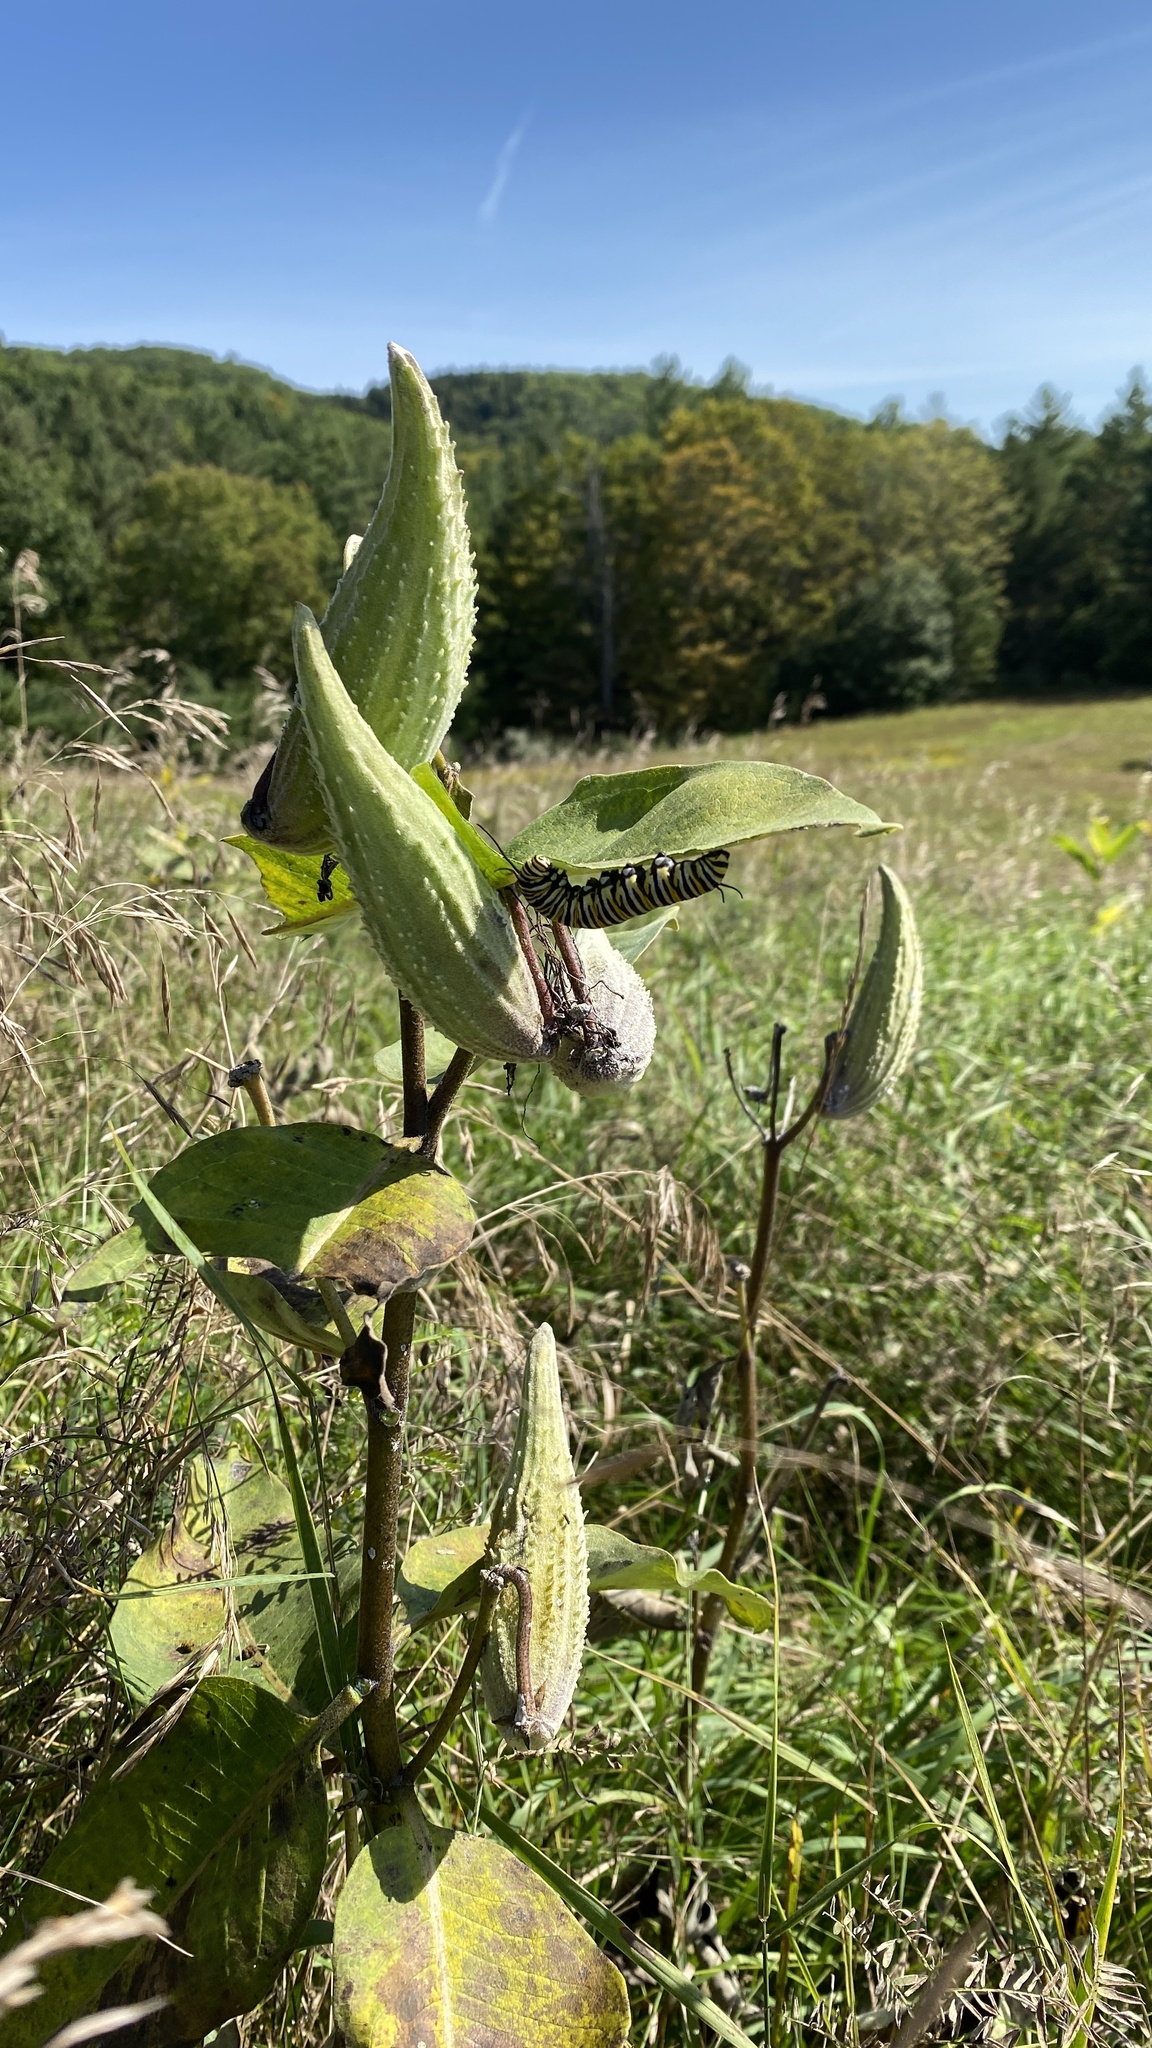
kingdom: Plantae
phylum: Tracheophyta
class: Magnoliopsida
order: Gentianales
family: Apocynaceae
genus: Asclepias
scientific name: Asclepias syriaca
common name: Common milkweed
